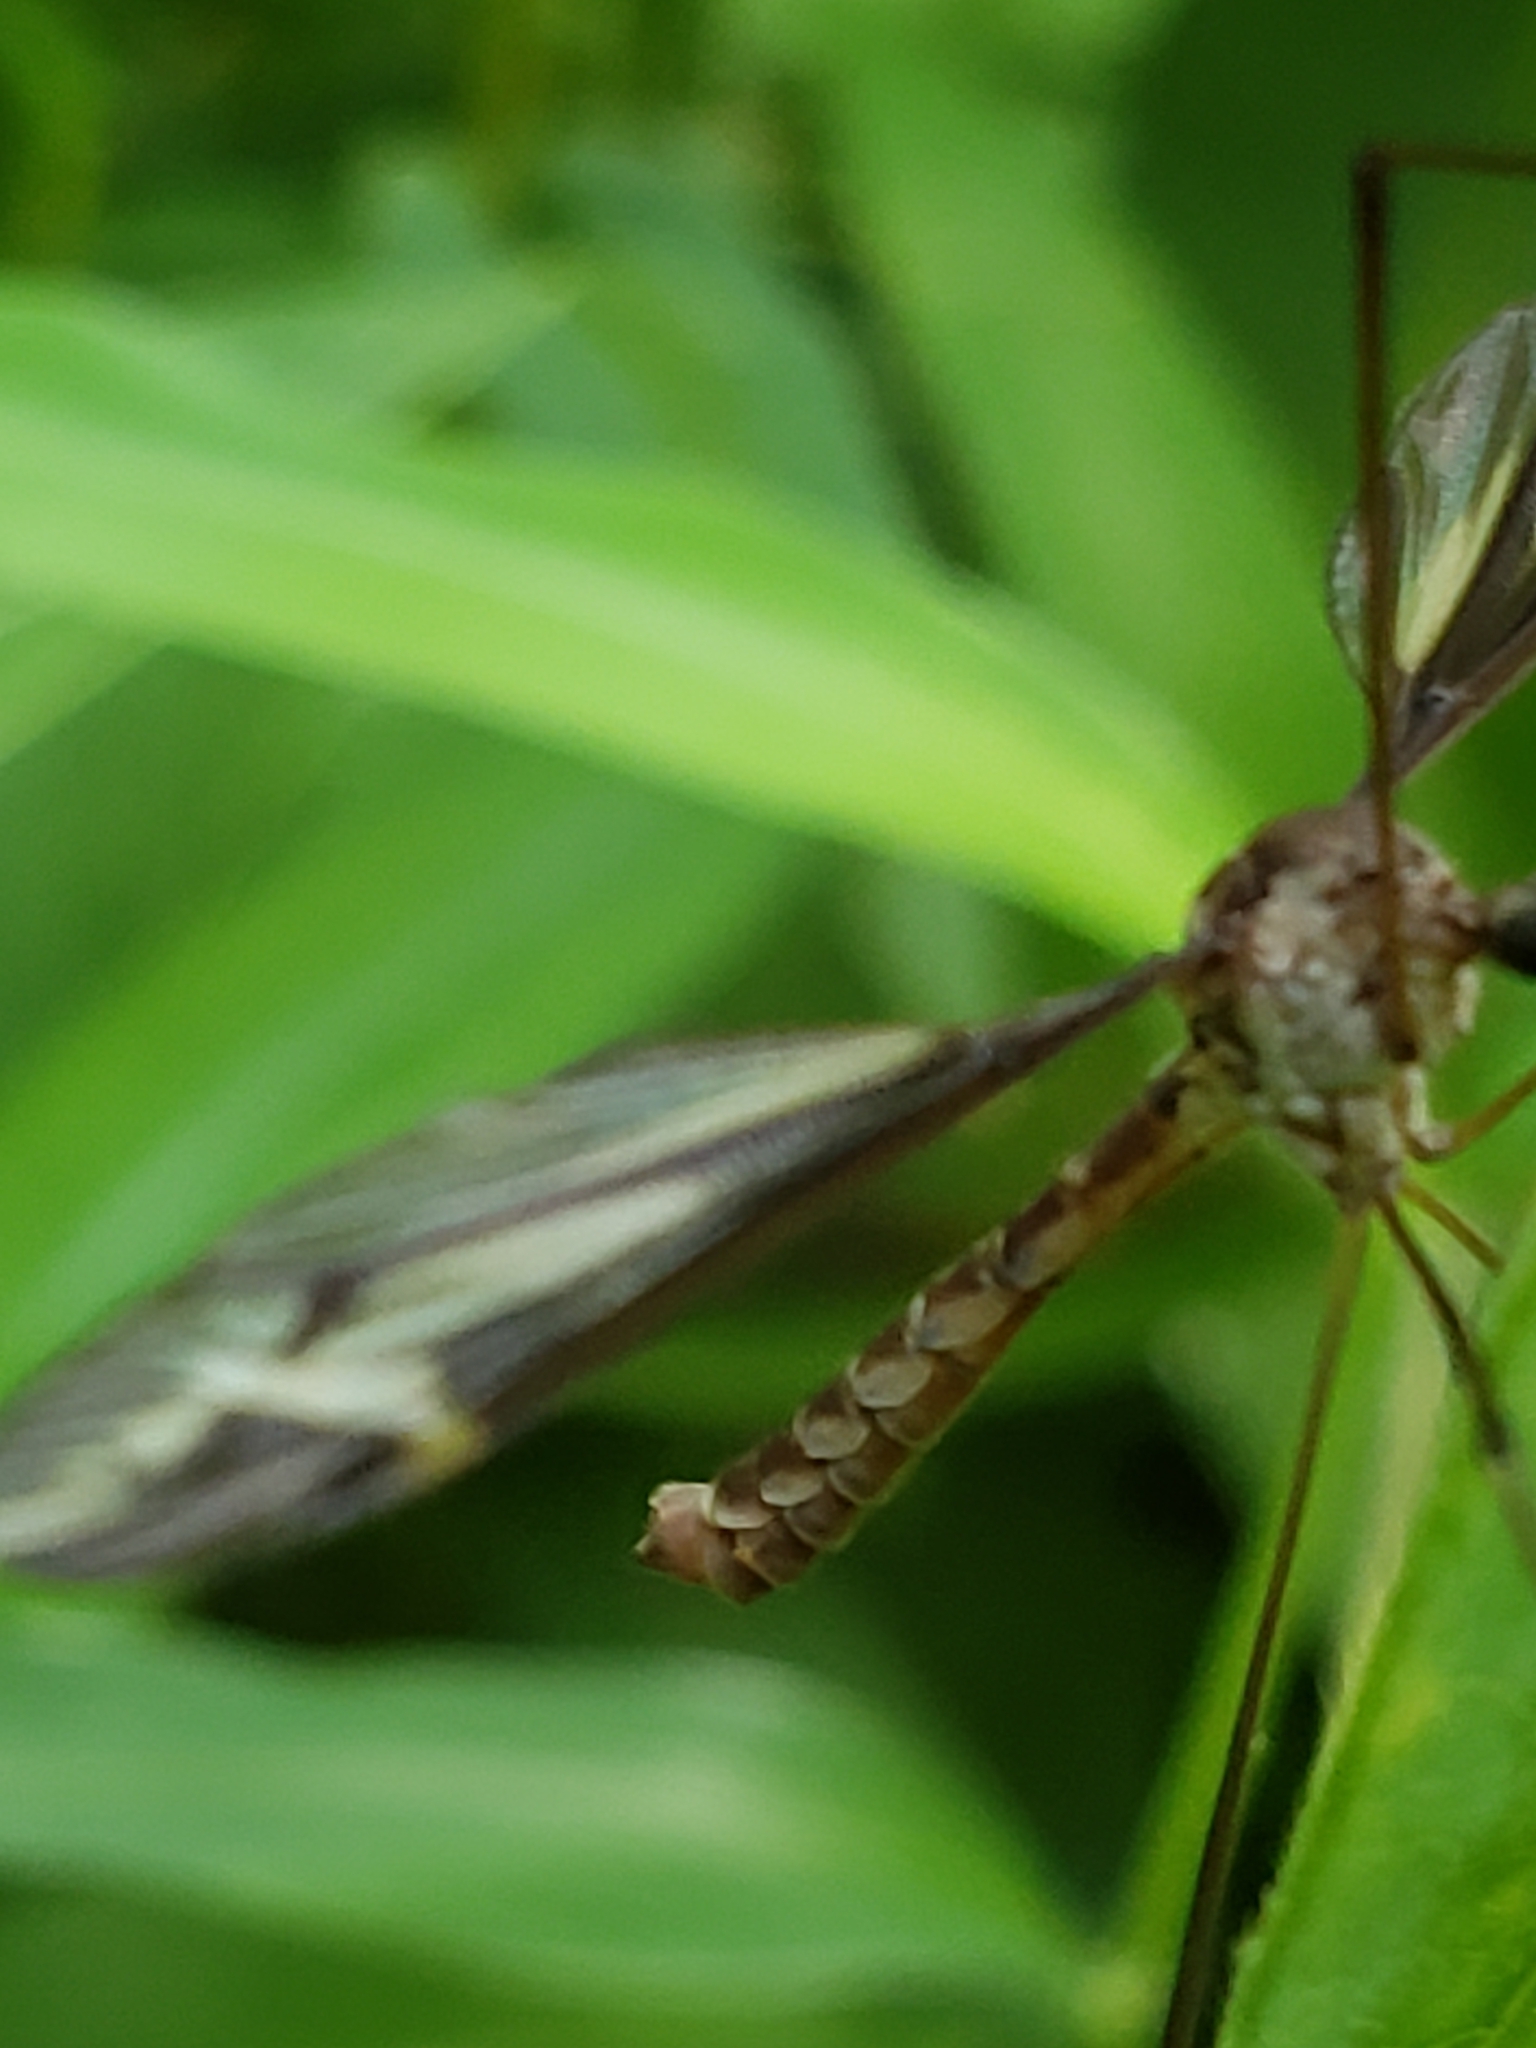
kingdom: Animalia
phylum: Arthropoda
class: Insecta
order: Diptera
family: Tipulidae
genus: Tipula
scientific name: Tipula caloptera
